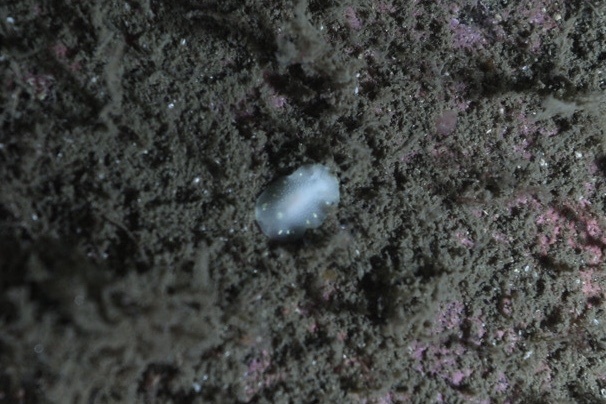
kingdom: Animalia
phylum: Mollusca
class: Gastropoda
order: Nudibranchia
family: Cadlinidae
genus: Cadlina
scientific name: Cadlina laevis
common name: White atlantic cadlina
